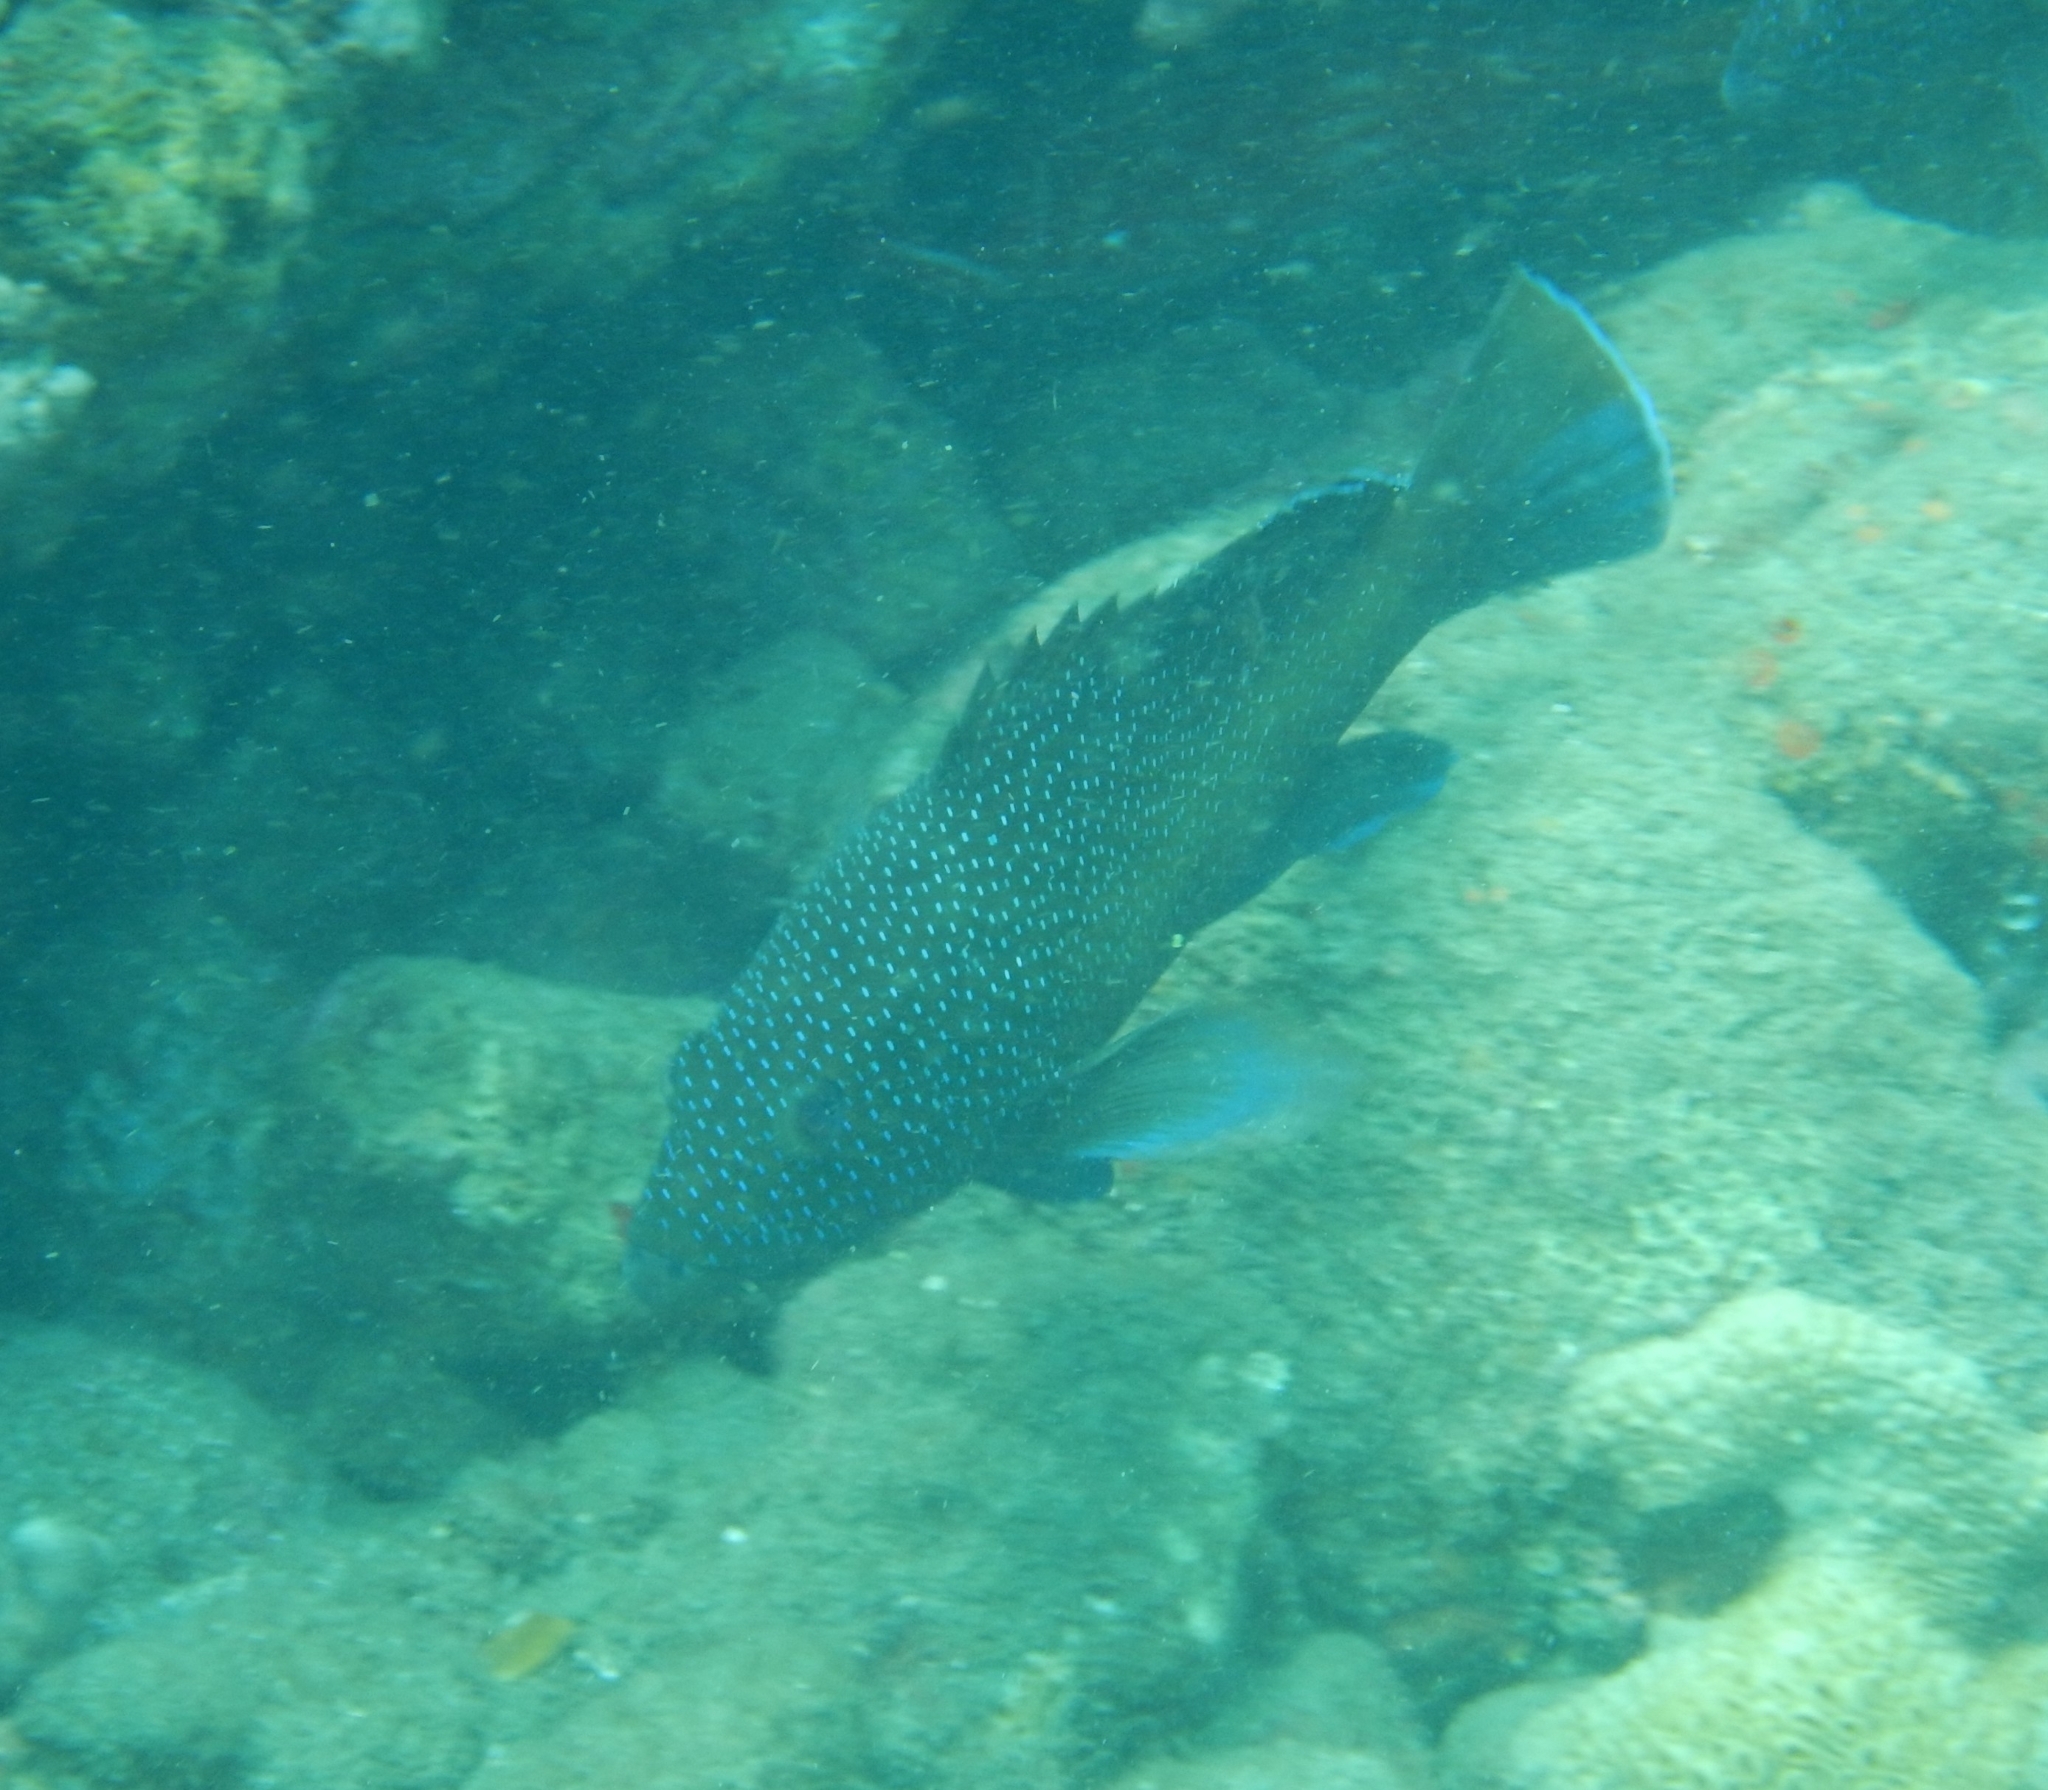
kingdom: Animalia
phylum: Chordata
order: Perciformes
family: Serranidae
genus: Cephalopholis
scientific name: Cephalopholis fulva
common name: Butterfish
